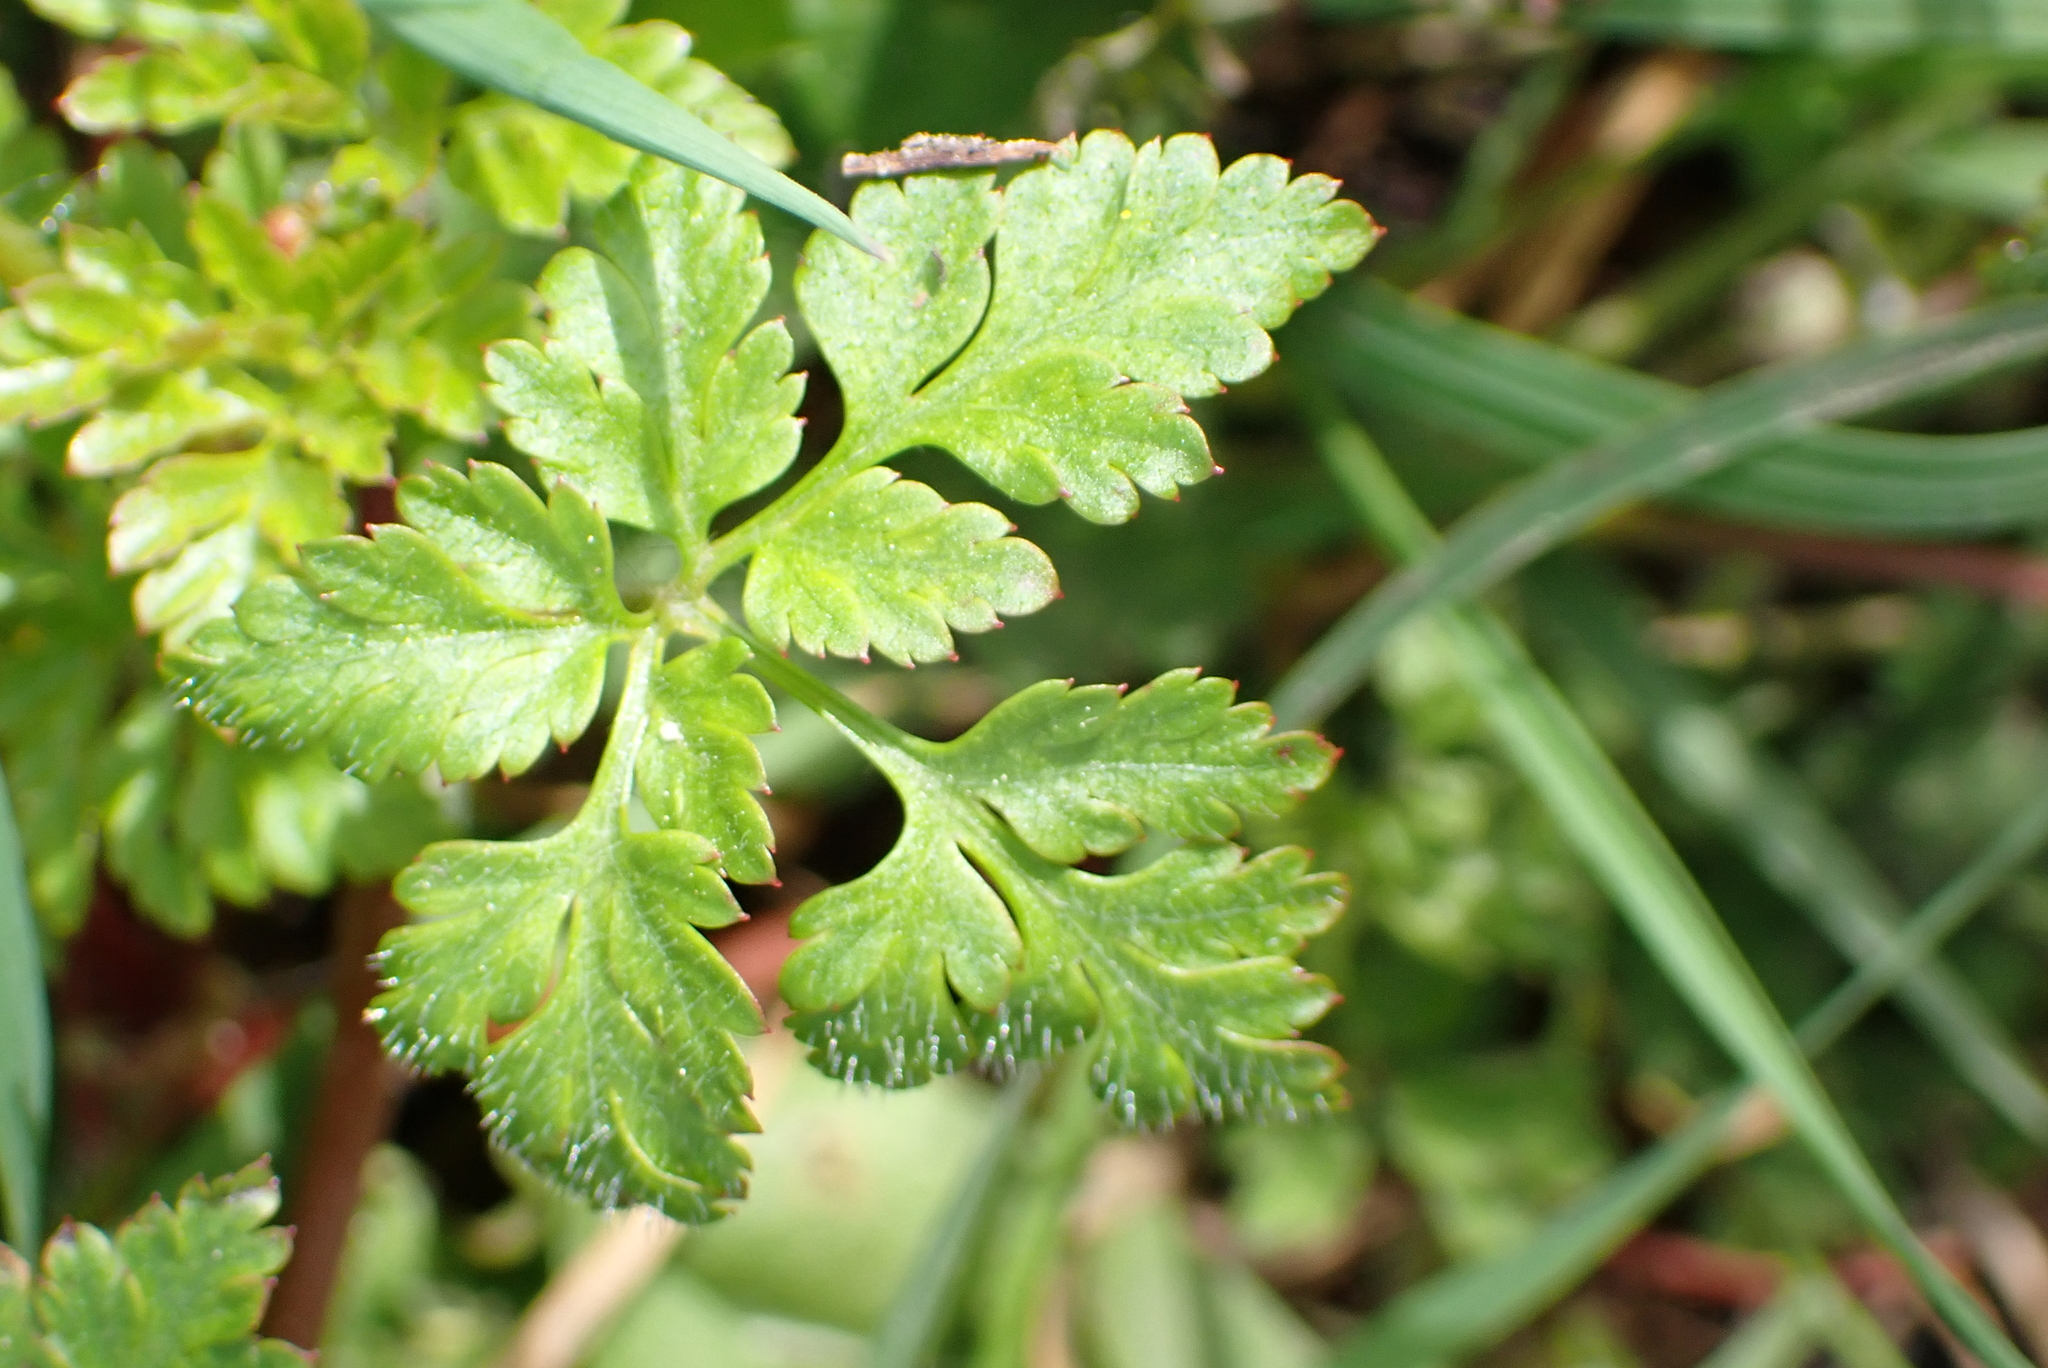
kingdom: Plantae
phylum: Tracheophyta
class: Magnoliopsida
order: Geraniales
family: Geraniaceae
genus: Geranium
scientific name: Geranium robertianum
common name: Herb-robert
